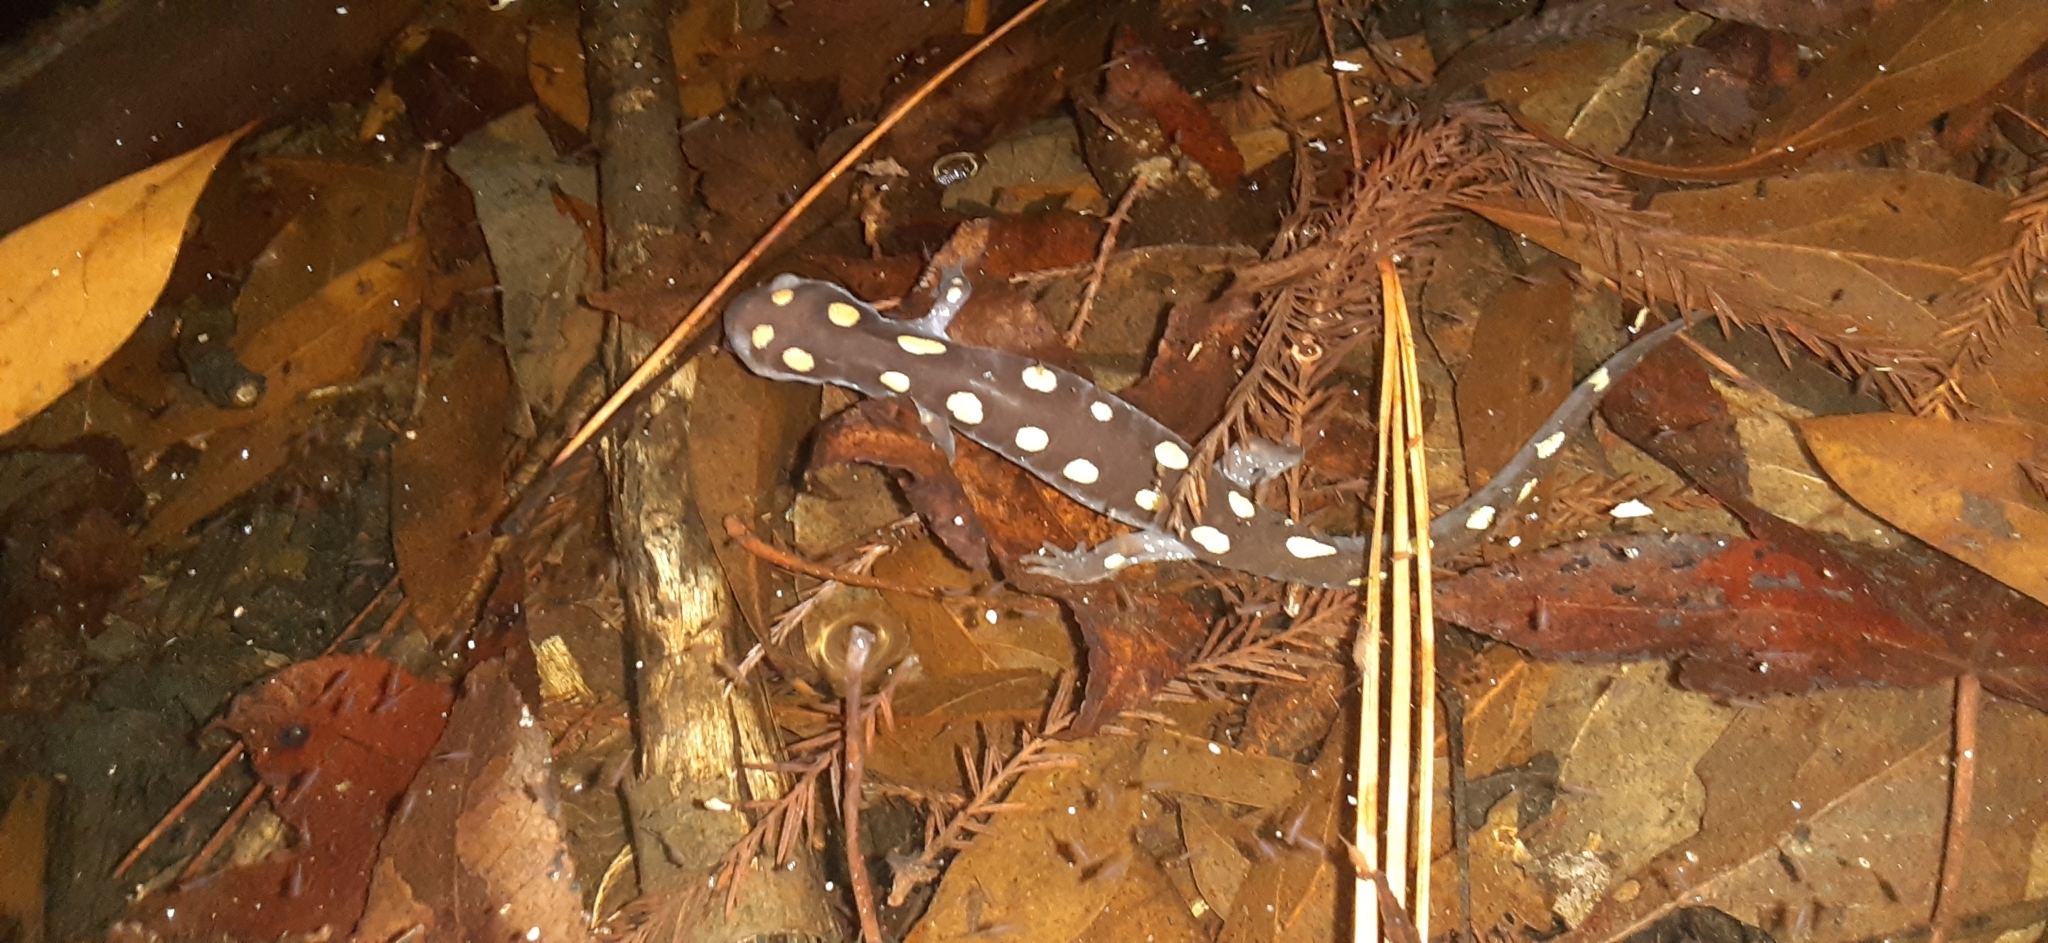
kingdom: Animalia
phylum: Chordata
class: Amphibia
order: Caudata
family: Ambystomatidae
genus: Ambystoma
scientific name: Ambystoma maculatum
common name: Spotted salamander
